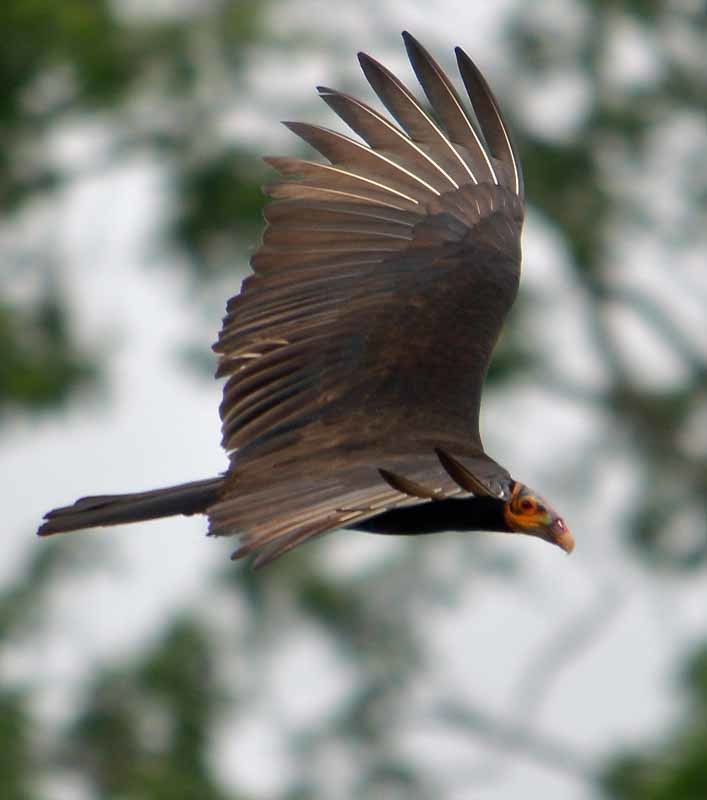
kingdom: Animalia
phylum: Chordata
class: Aves
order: Accipitriformes
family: Cathartidae
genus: Cathartes
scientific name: Cathartes burrovianus
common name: Lesser yellow-headed vulture
